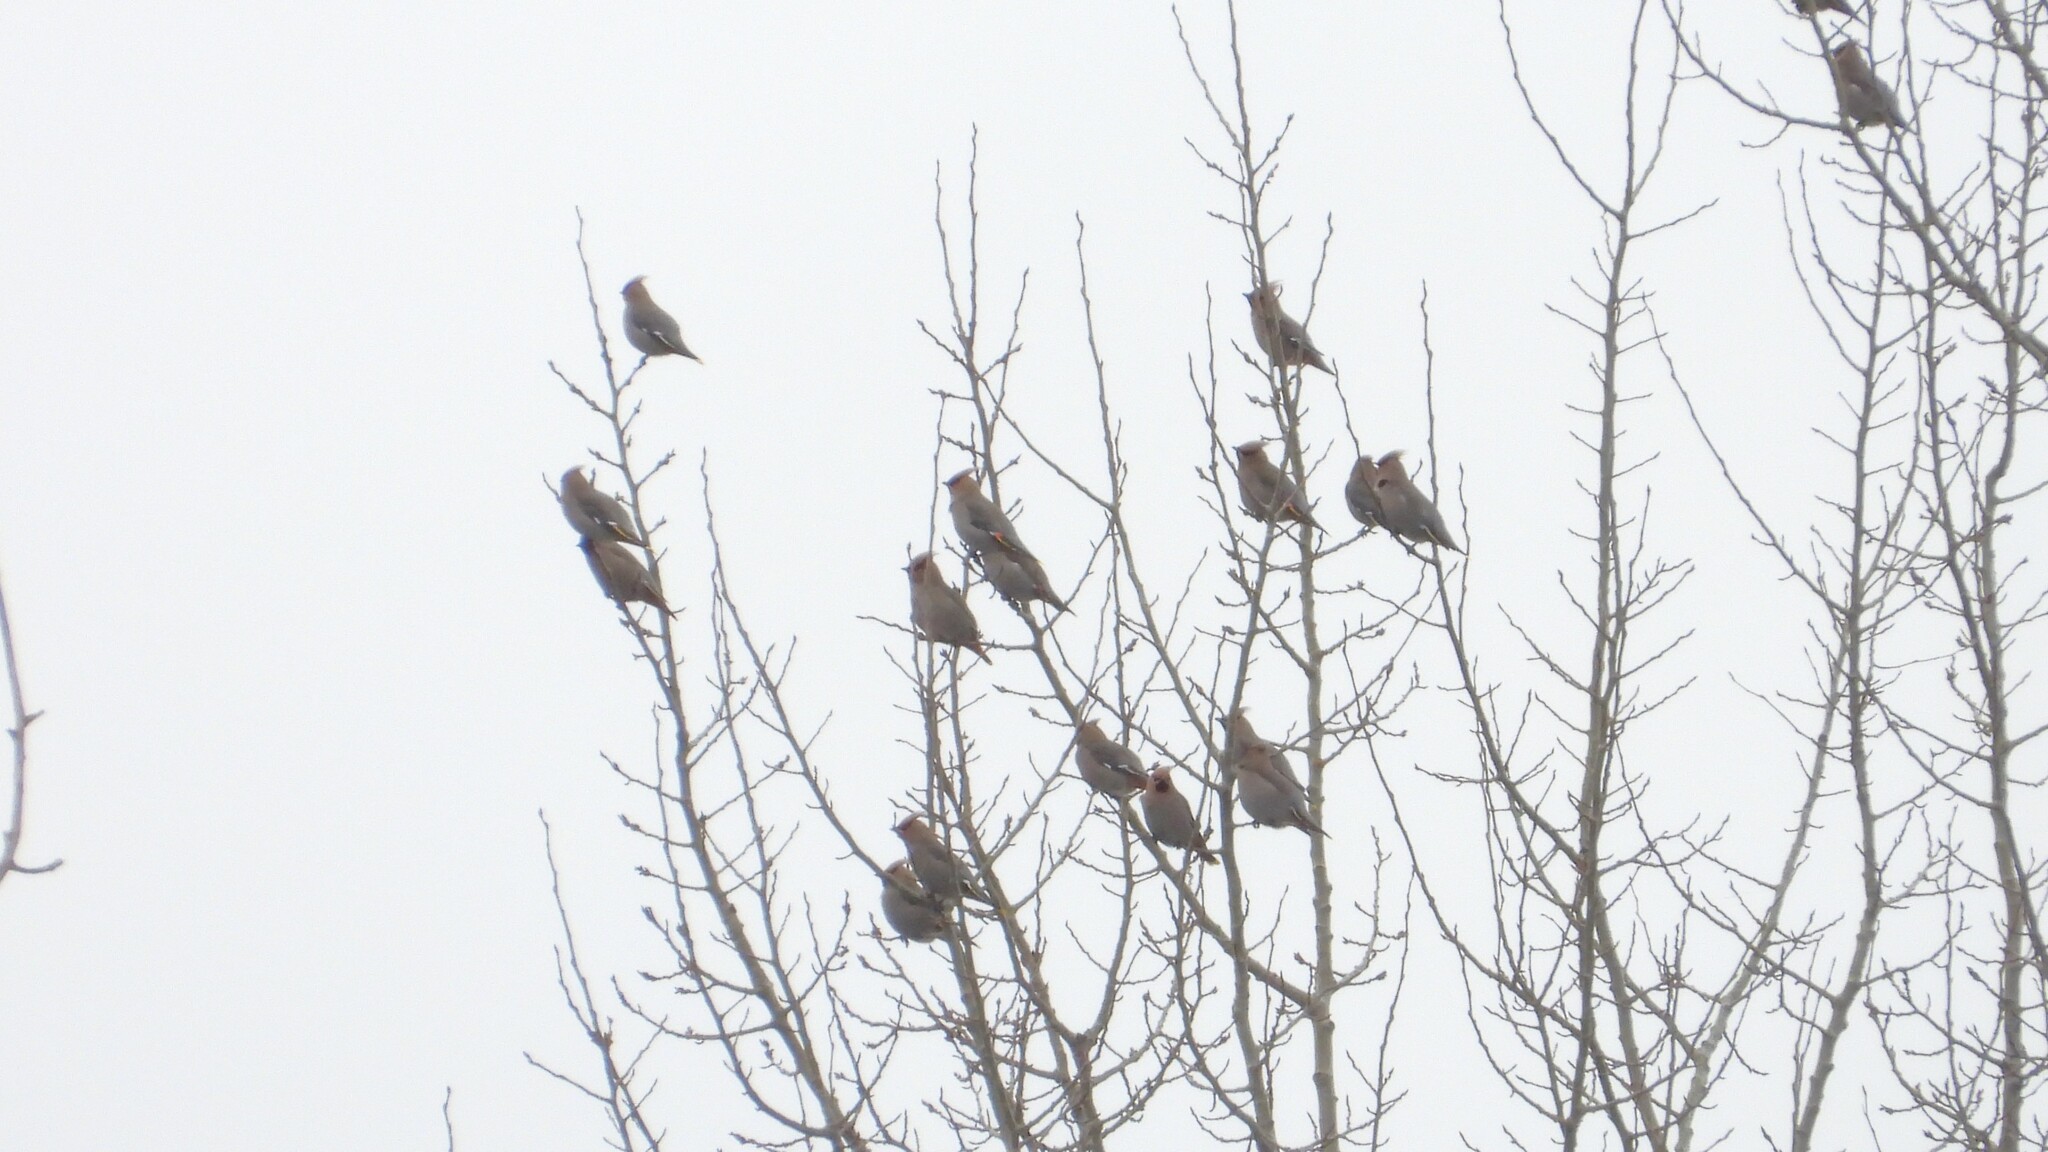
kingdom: Animalia
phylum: Chordata
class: Aves
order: Passeriformes
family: Bombycillidae
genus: Bombycilla
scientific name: Bombycilla garrulus
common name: Bohemian waxwing
